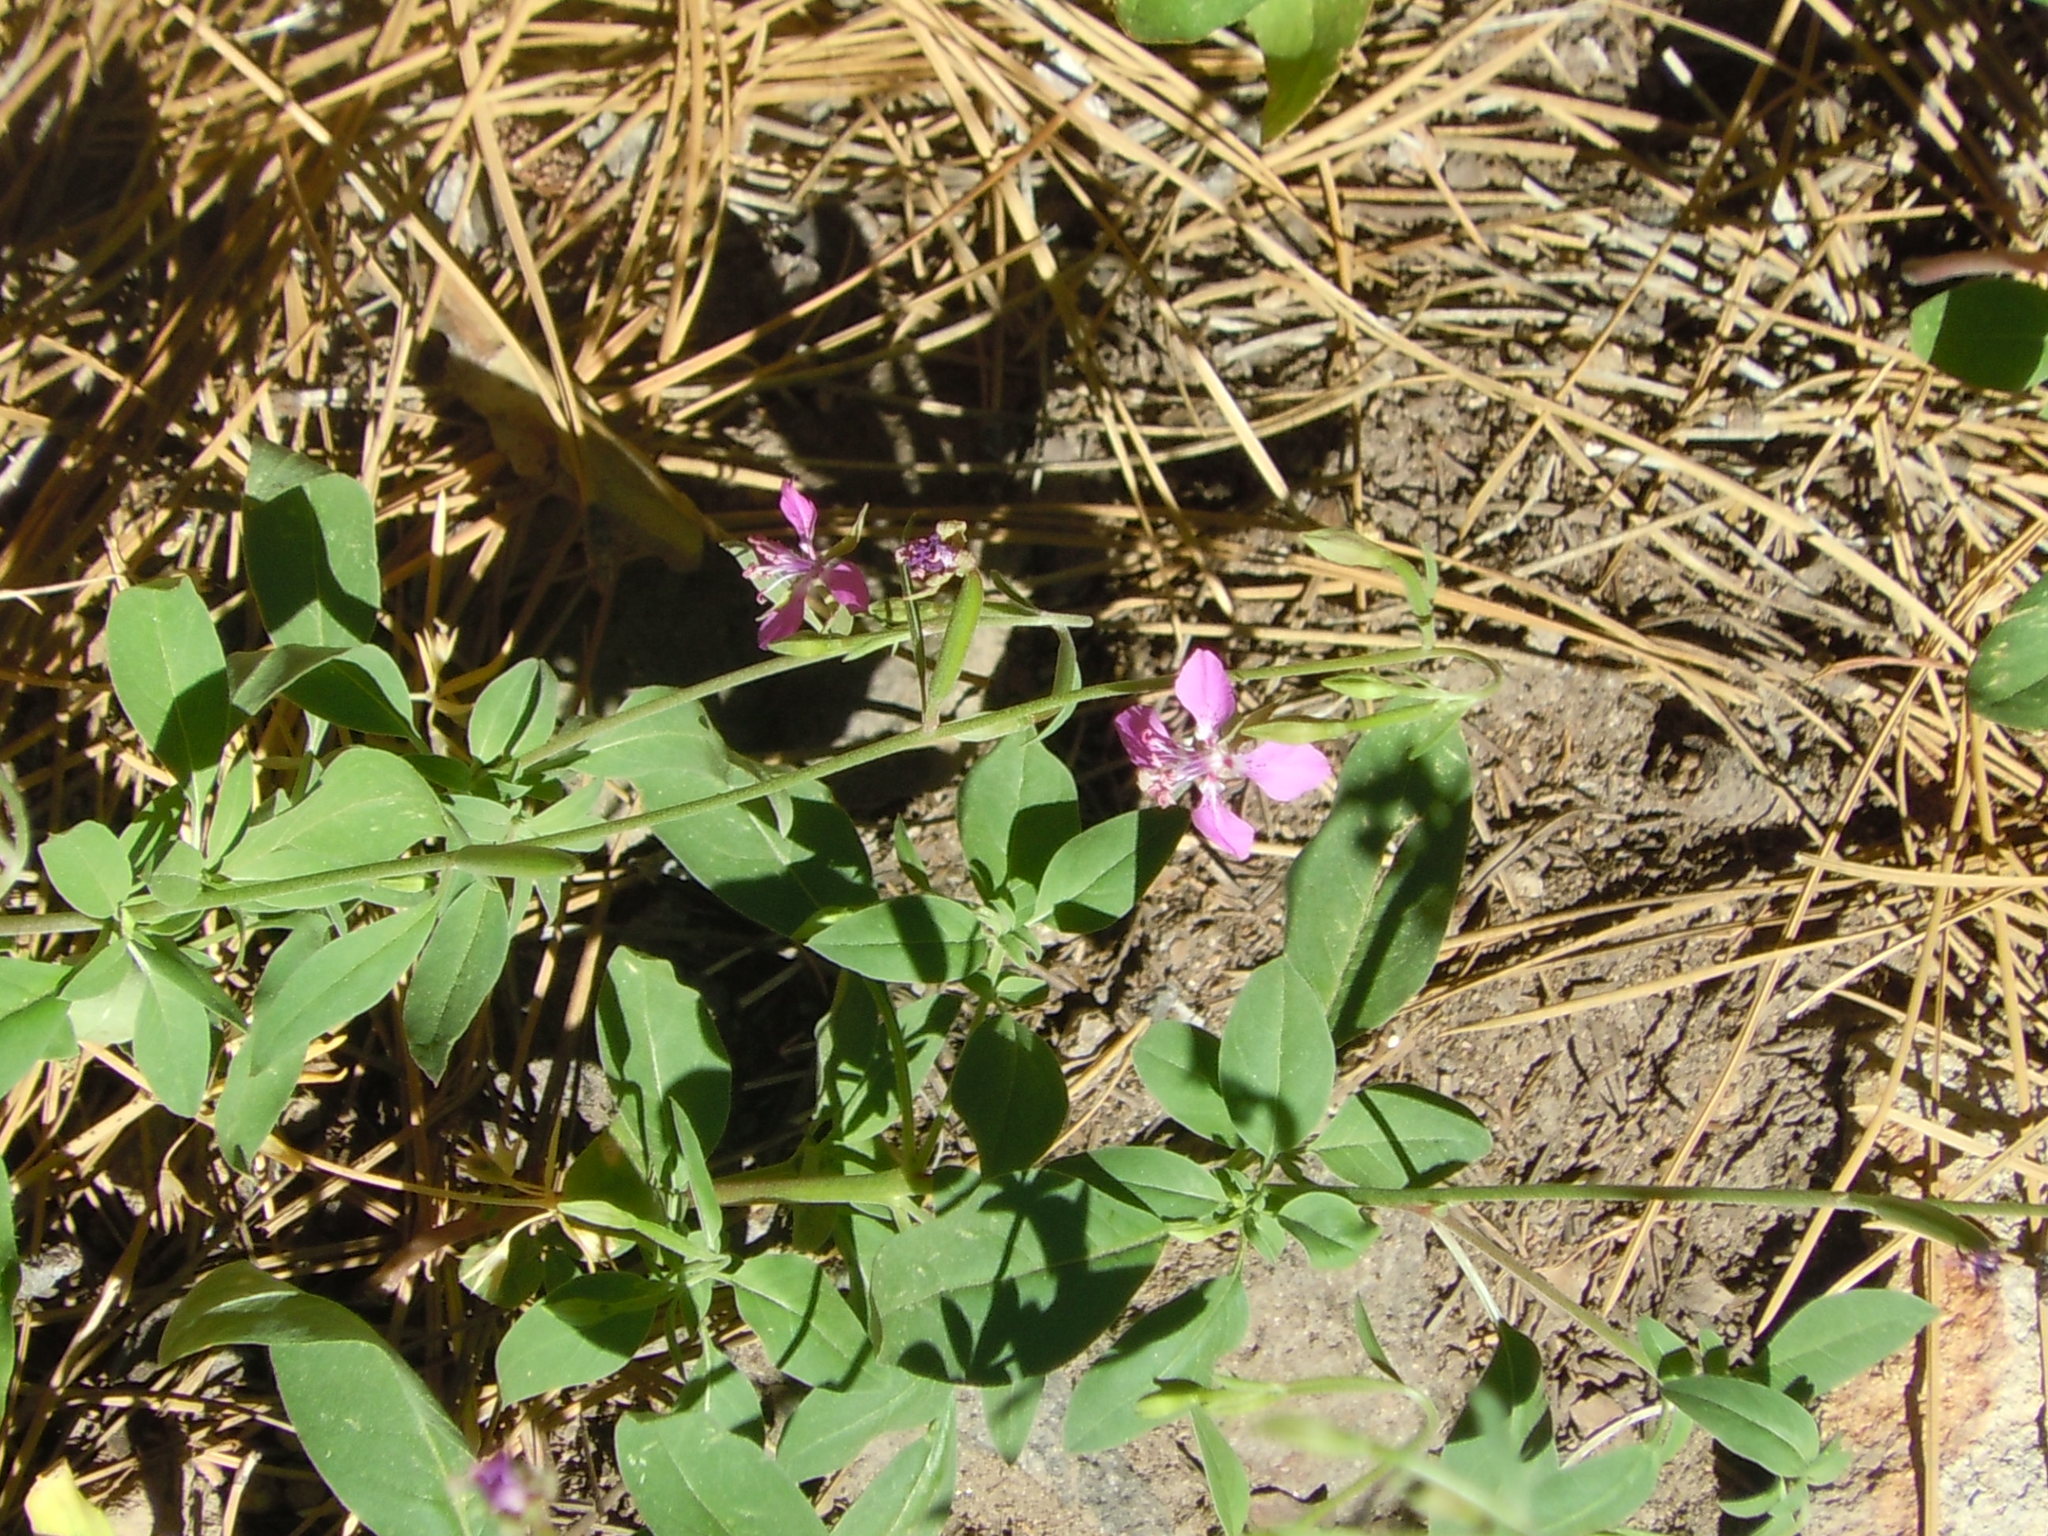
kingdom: Plantae
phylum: Tracheophyta
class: Magnoliopsida
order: Brassicales
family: Brassicaceae
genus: Raphanus
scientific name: Raphanus sativus
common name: Cultivated radish
